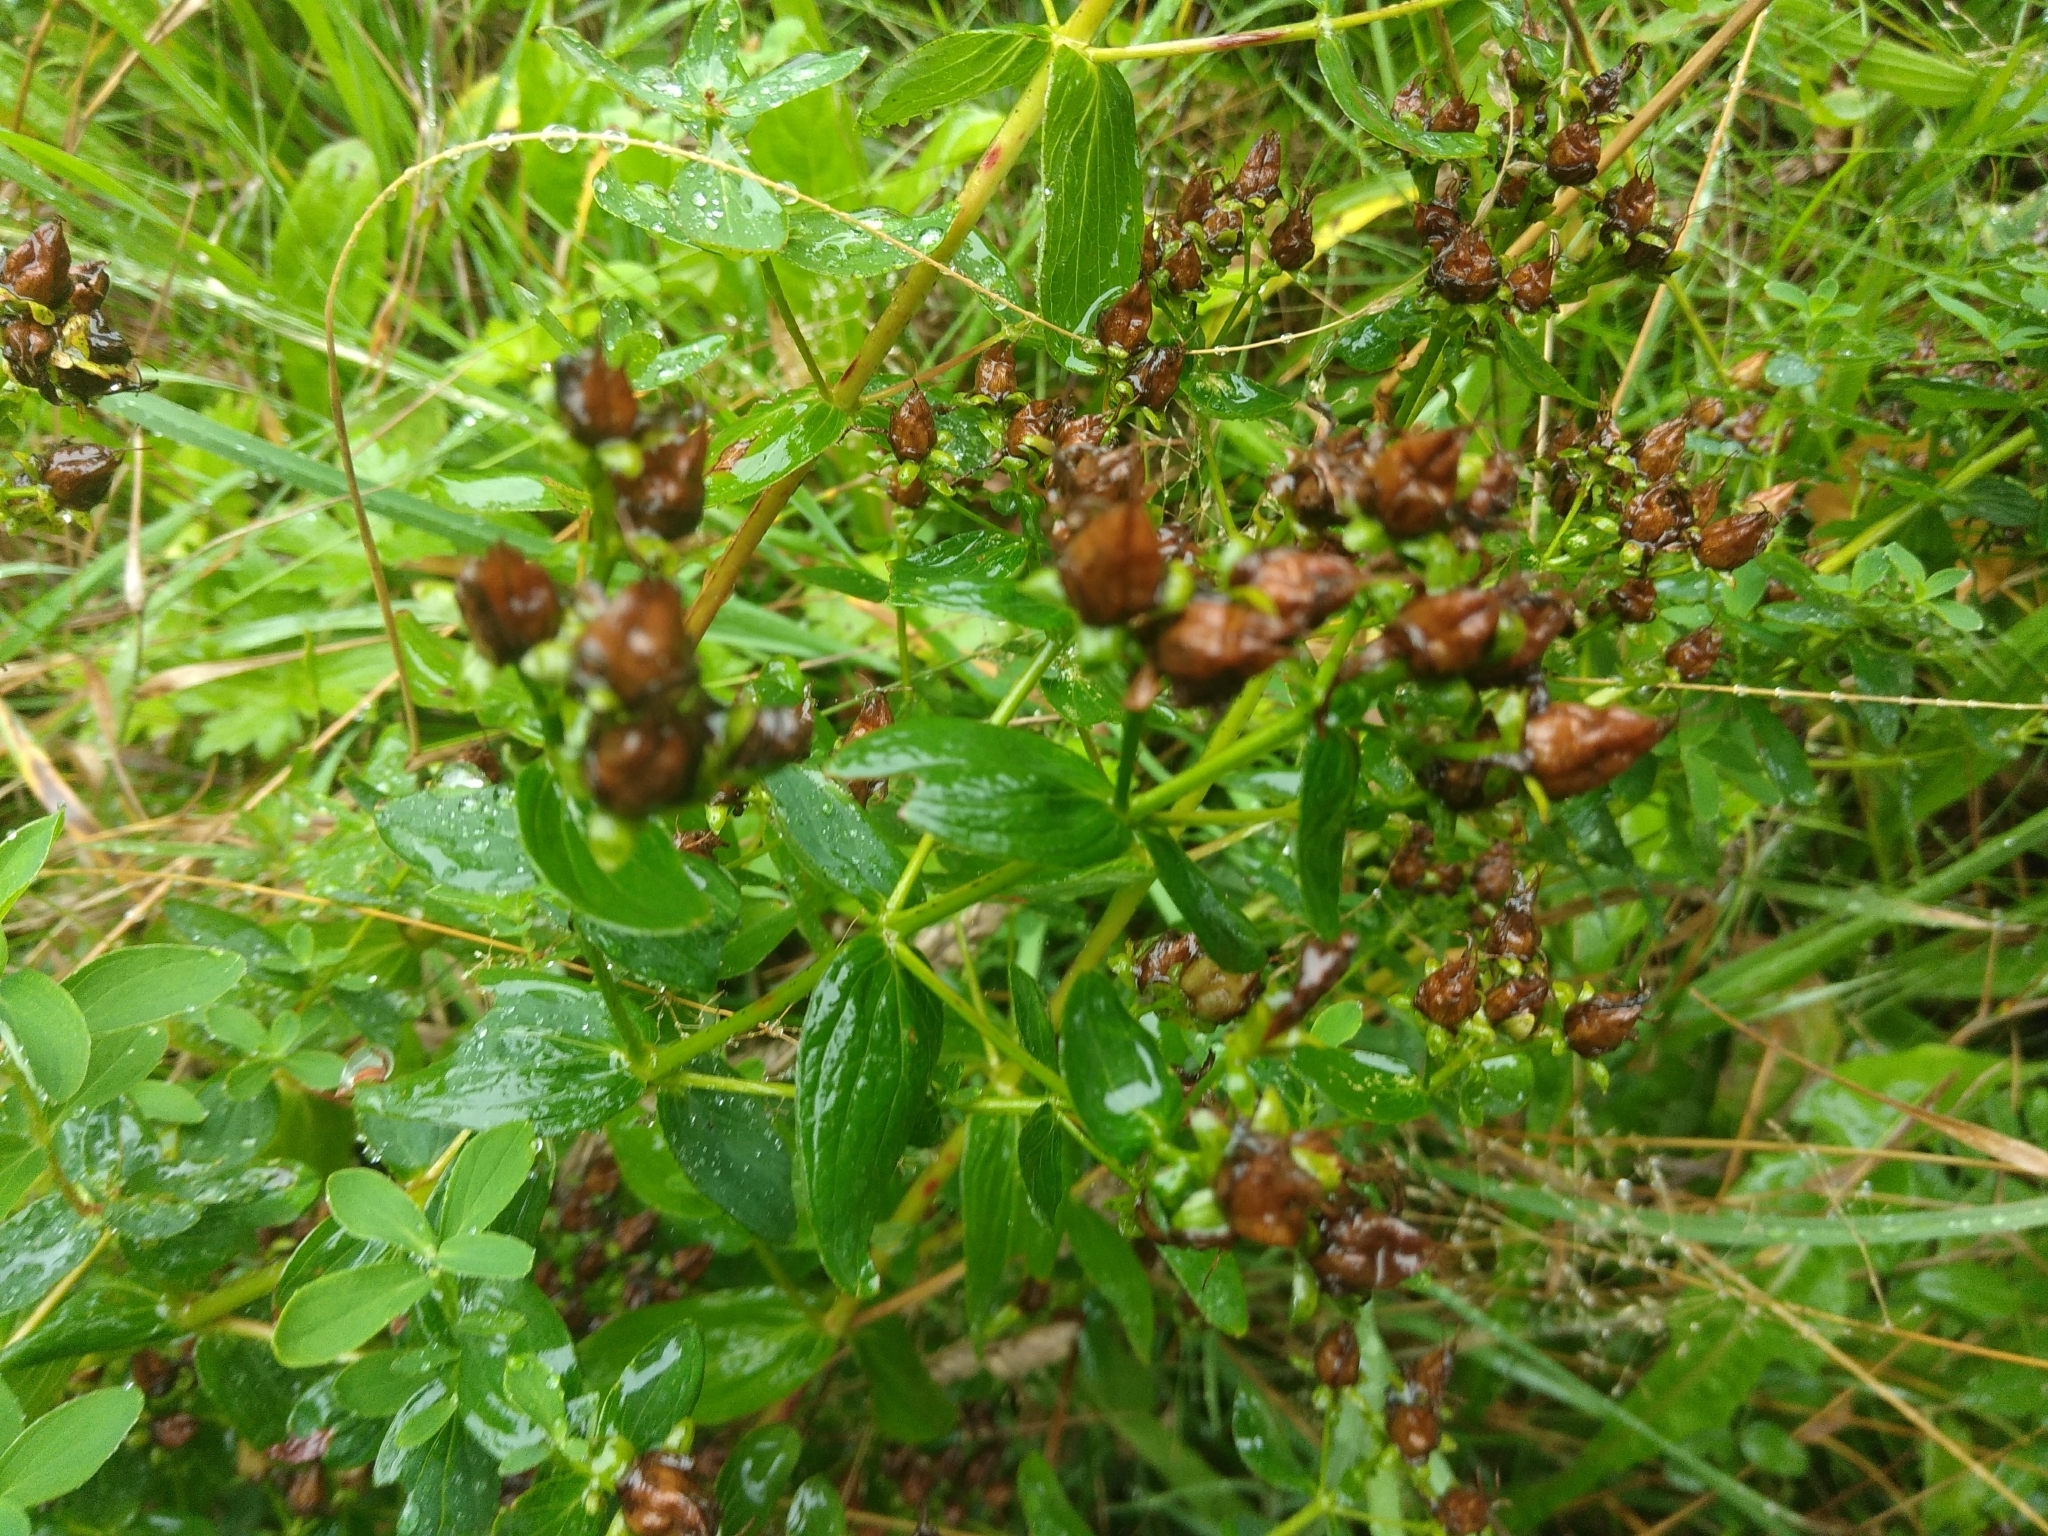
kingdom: Plantae
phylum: Tracheophyta
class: Magnoliopsida
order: Malpighiales
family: Hypericaceae
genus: Hypericum
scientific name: Hypericum perforatum
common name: Common st. johnswort
